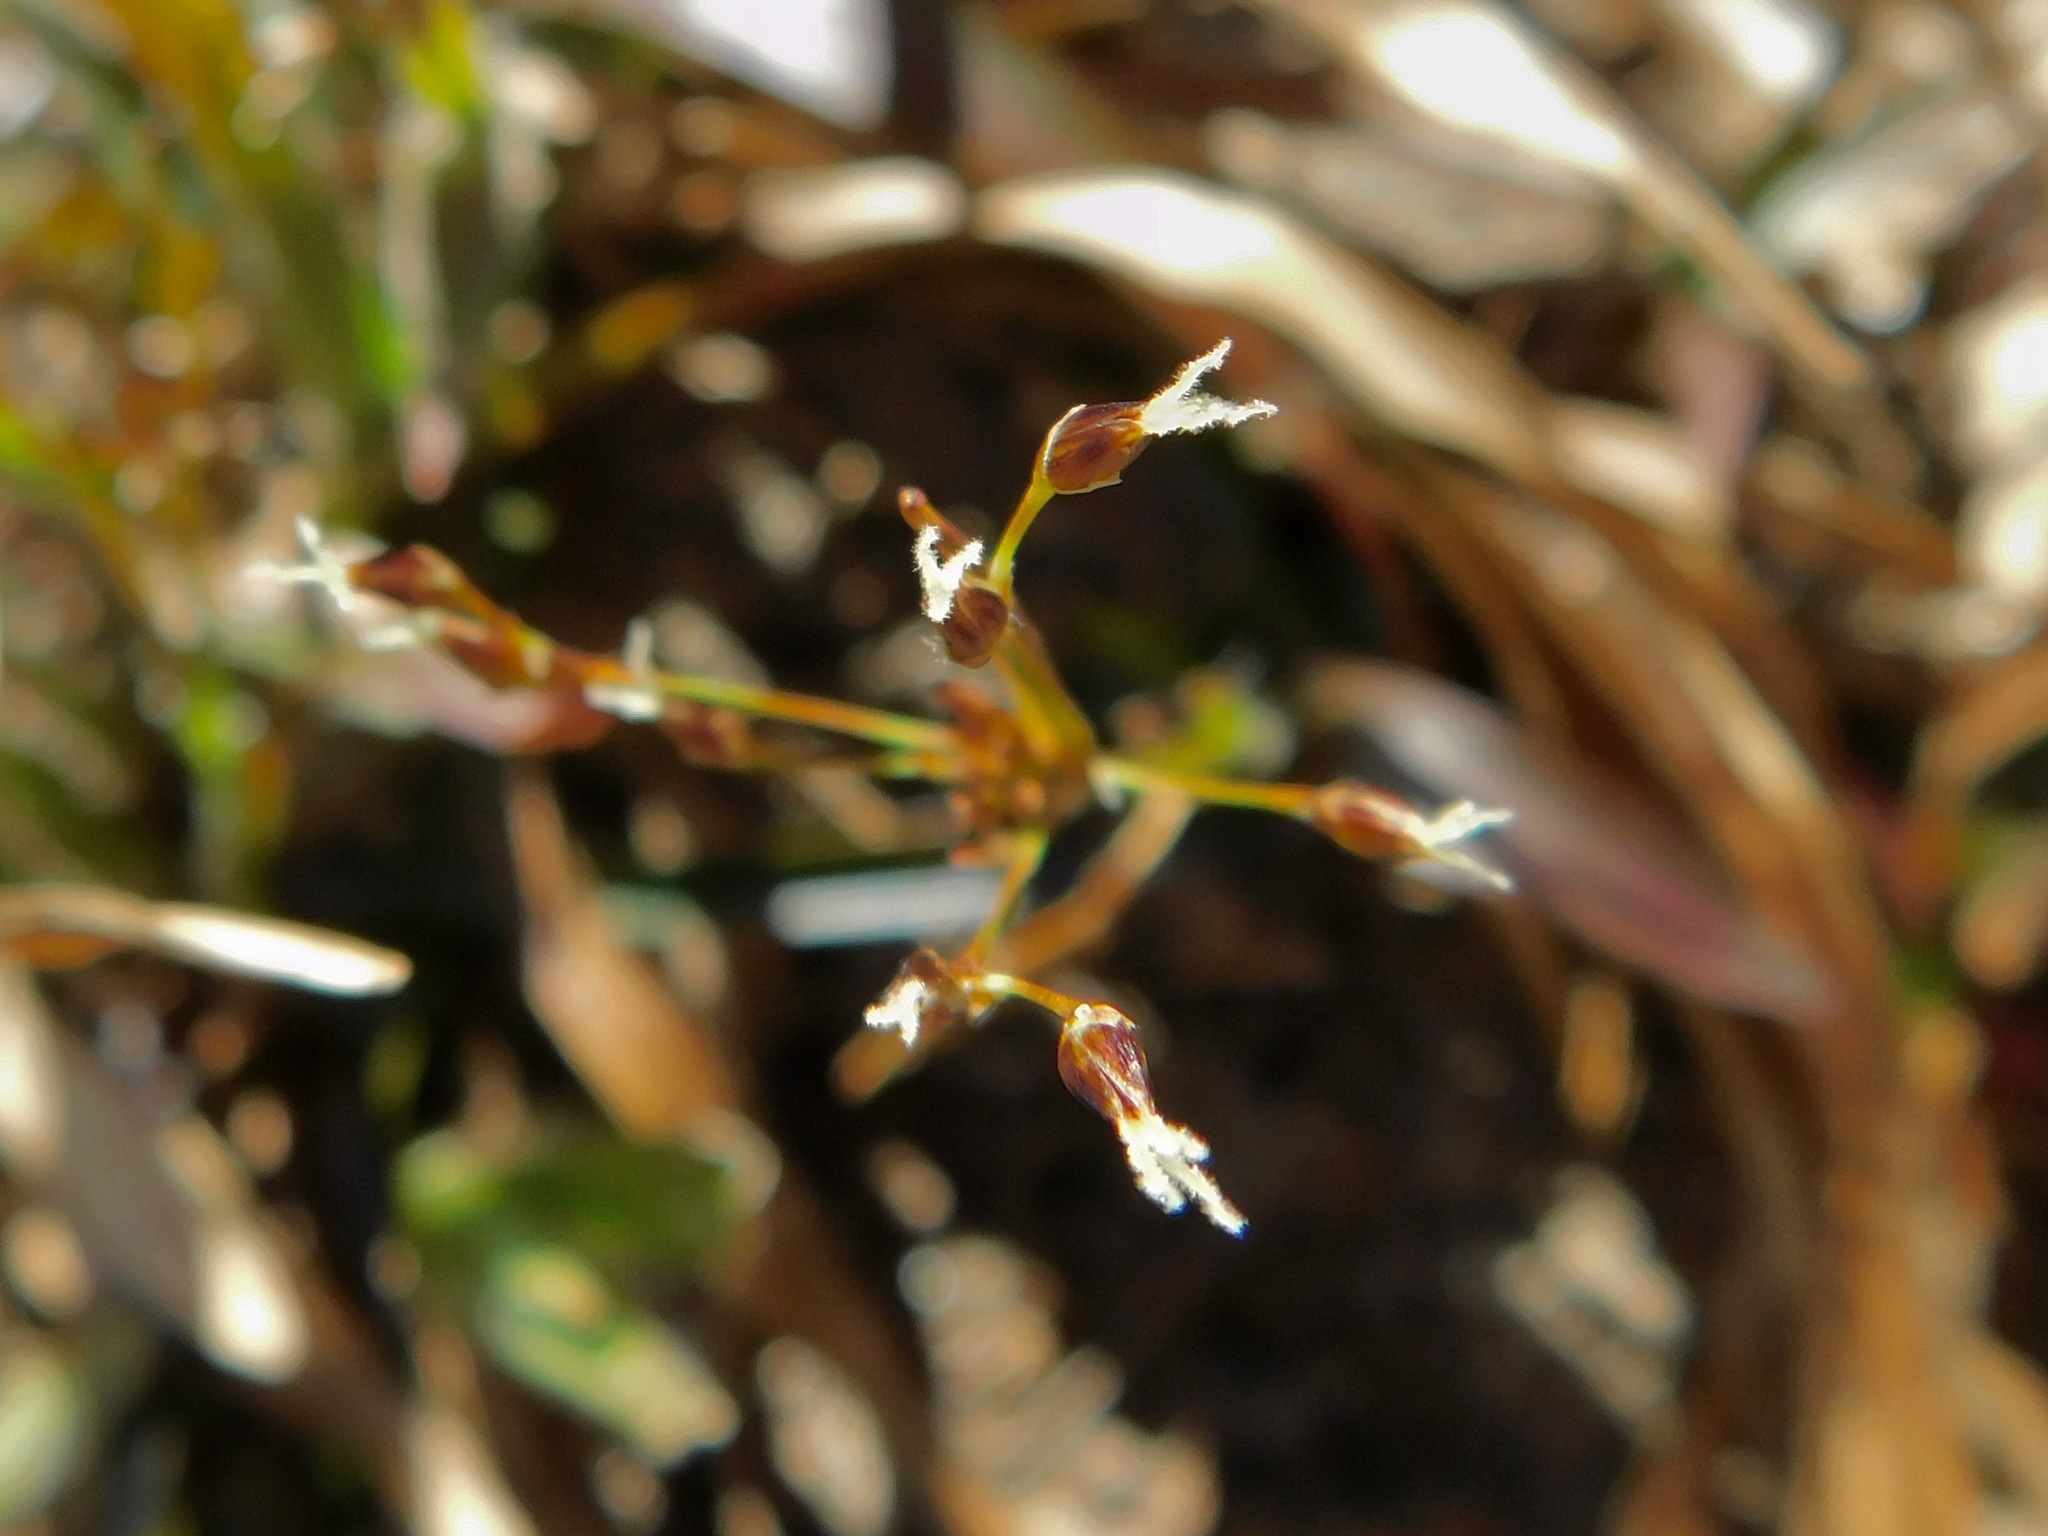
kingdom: Plantae
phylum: Tracheophyta
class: Liliopsida
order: Poales
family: Juncaceae
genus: Luzula
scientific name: Luzula acuminata
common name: Hairy woodrush
